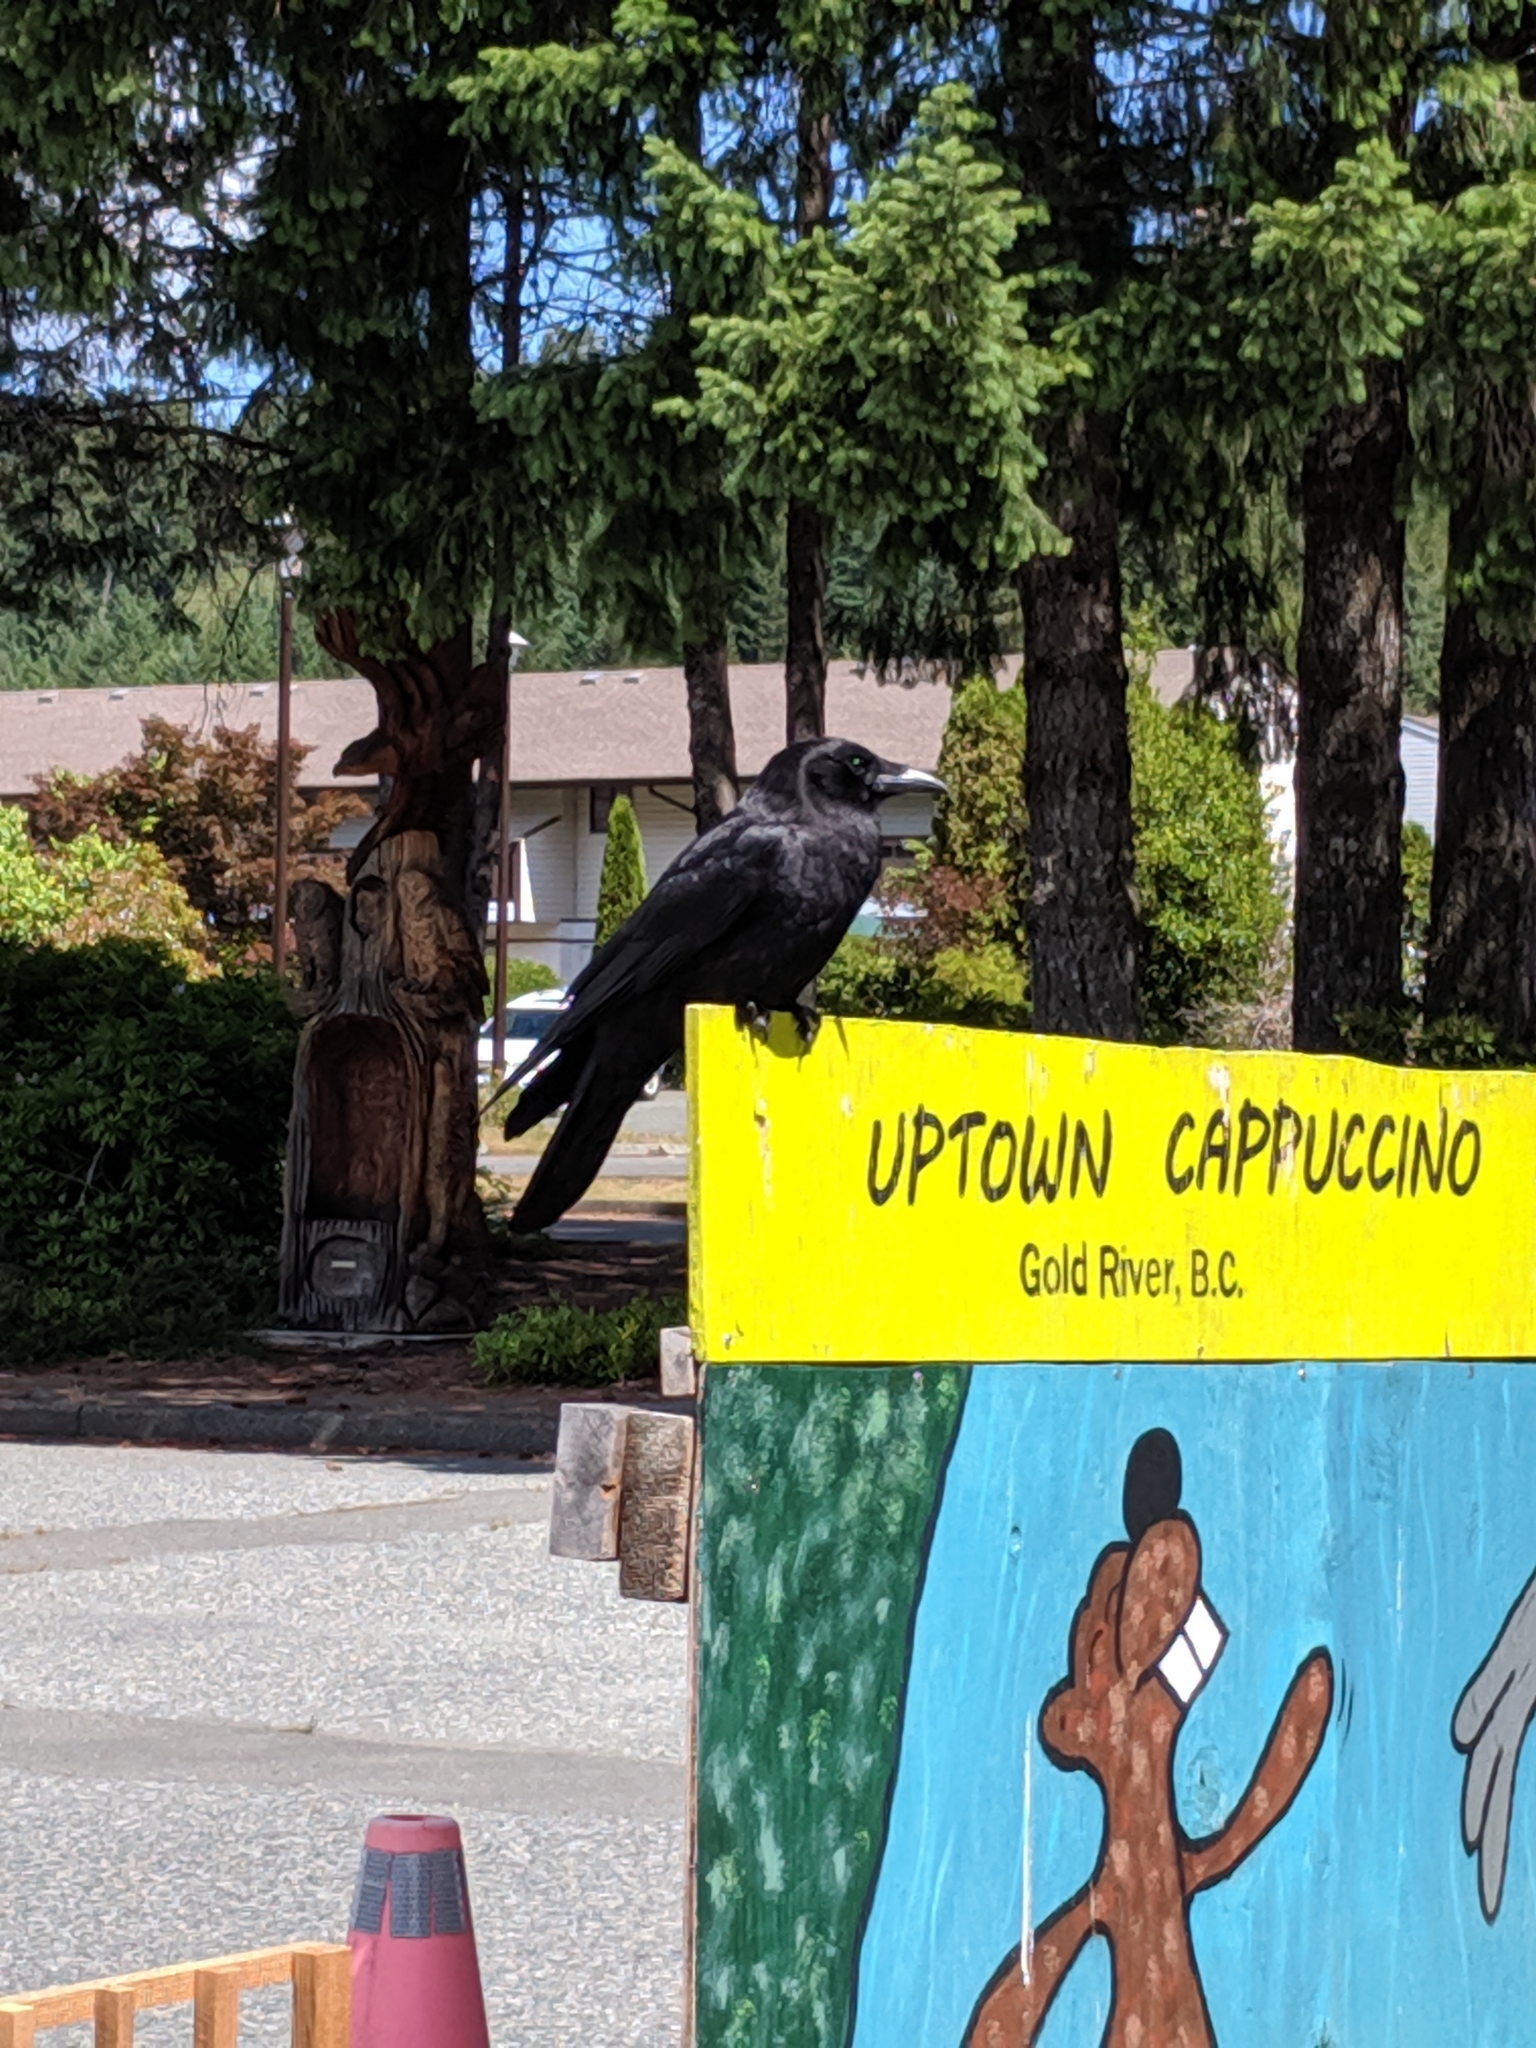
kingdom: Animalia
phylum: Chordata
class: Aves
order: Passeriformes
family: Corvidae
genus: Corvus
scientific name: Corvus brachyrhynchos
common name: American crow
